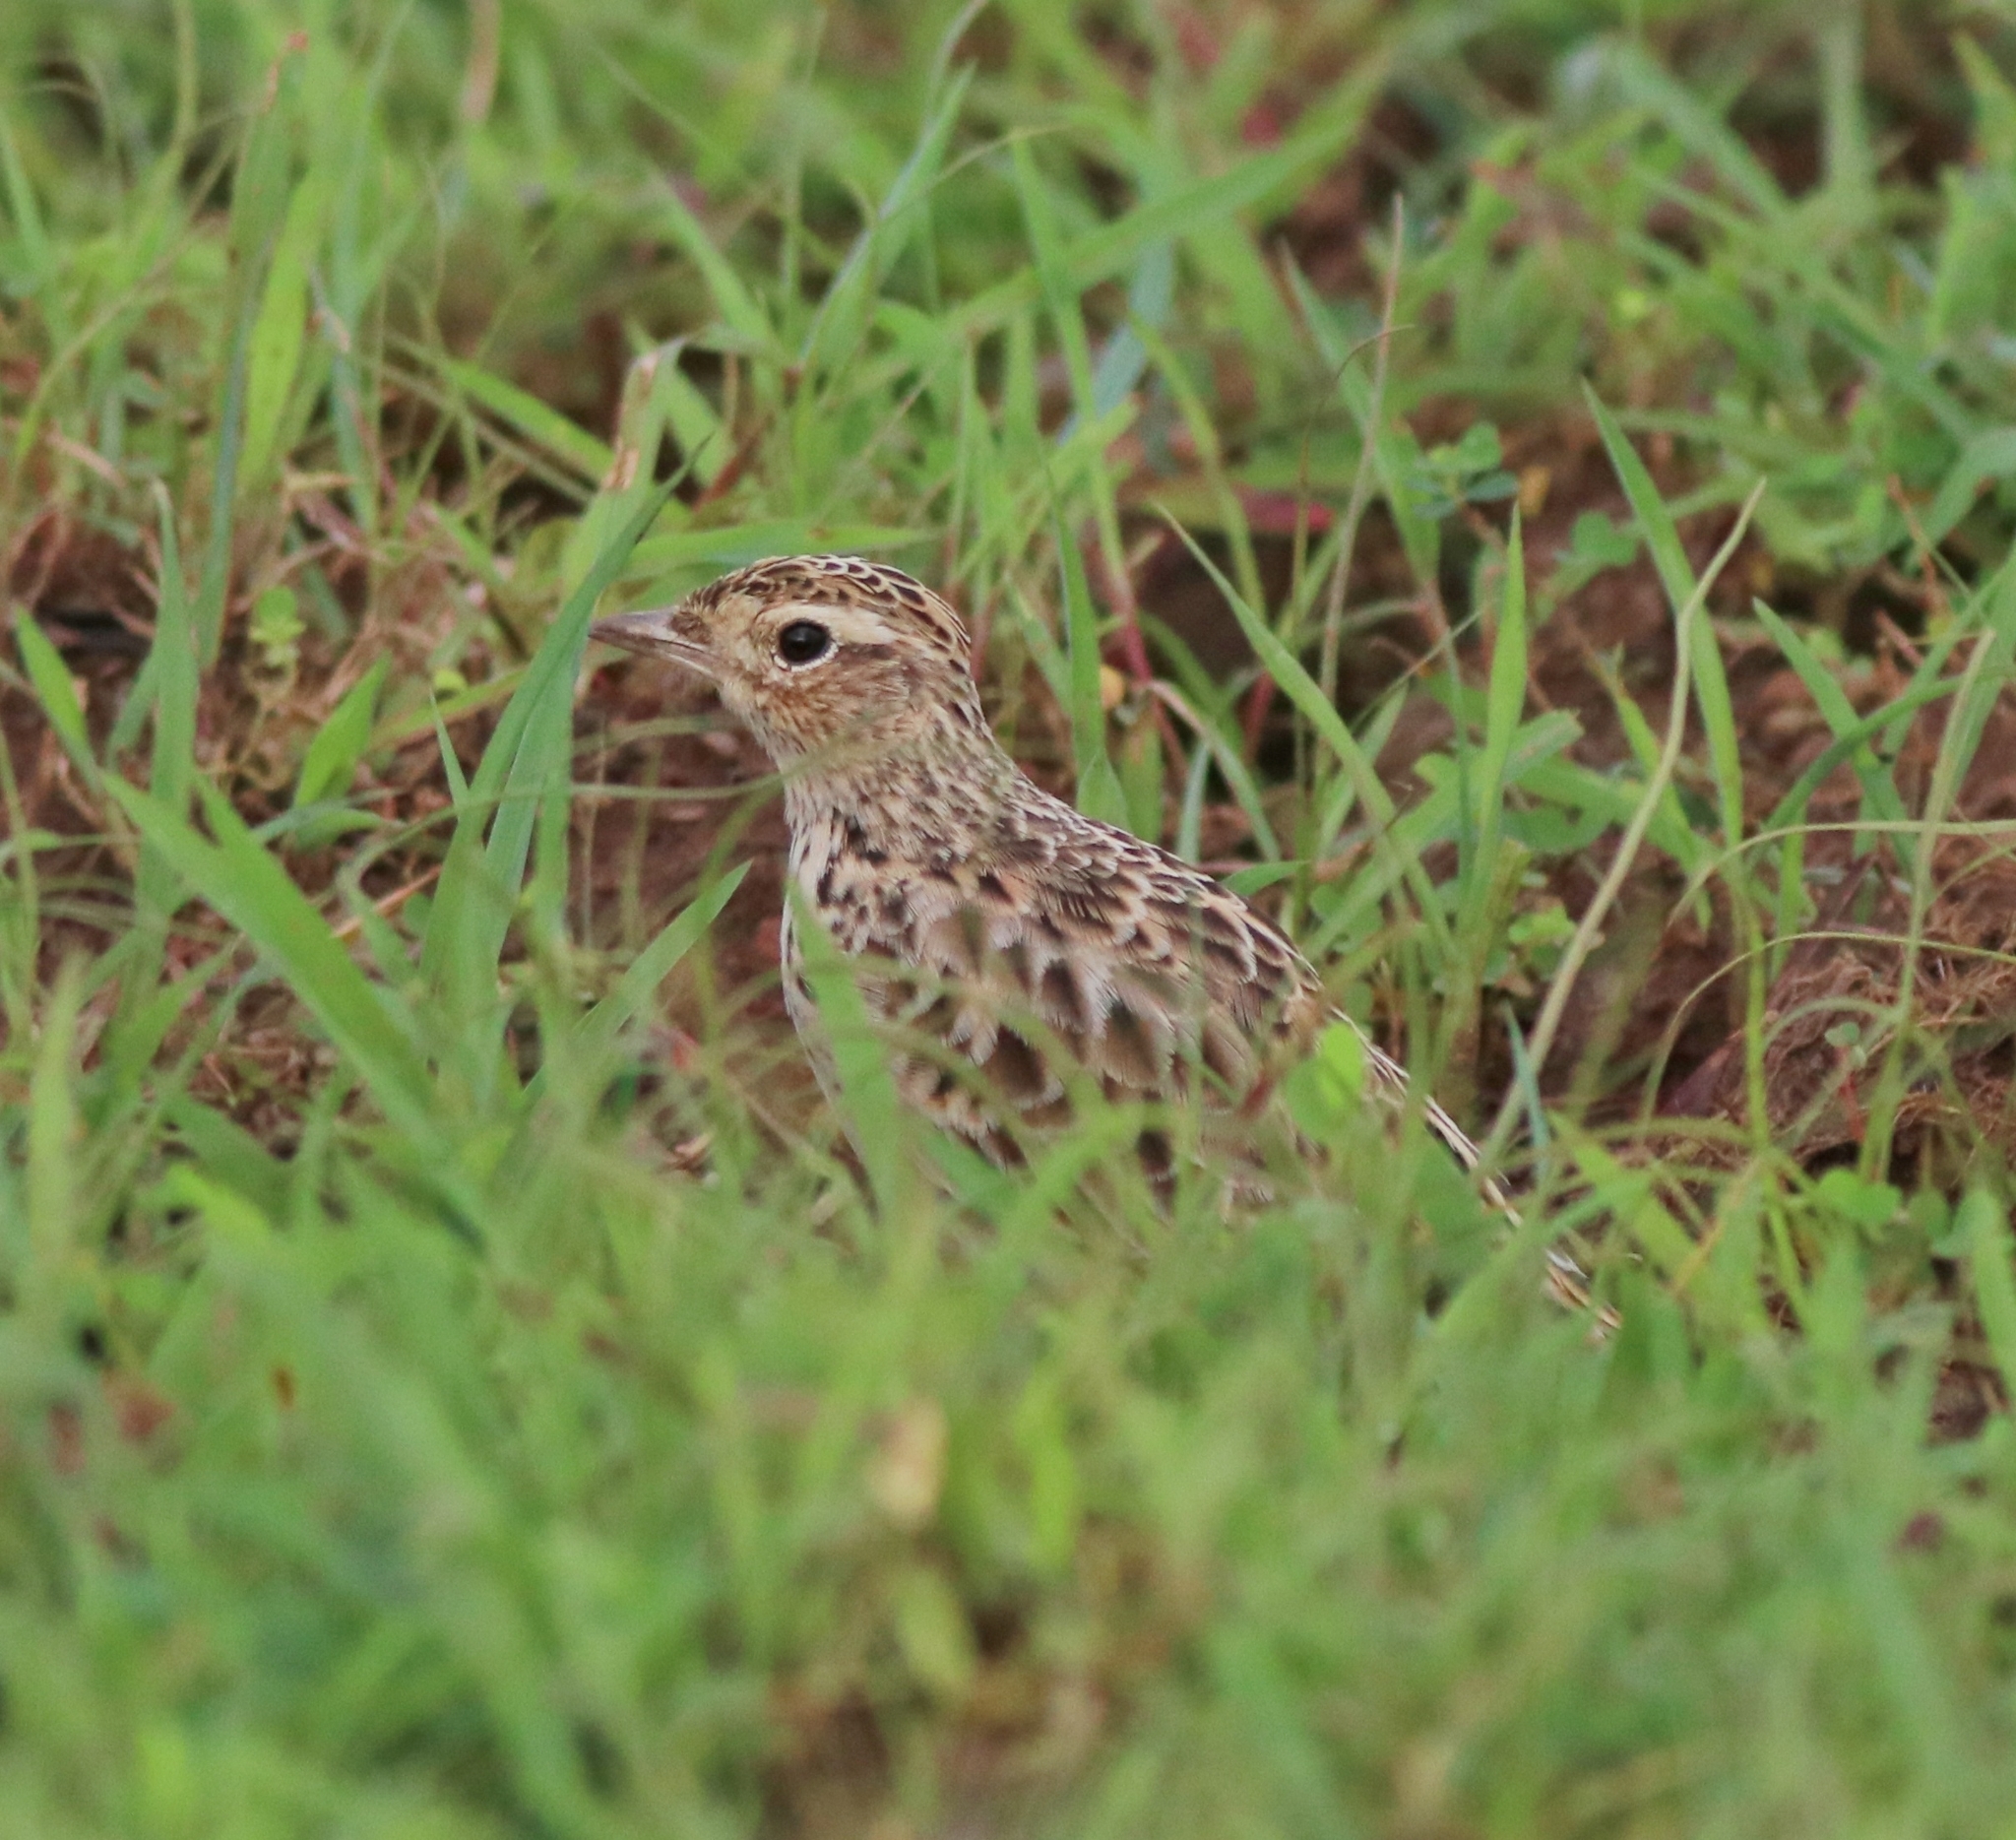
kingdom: Animalia
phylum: Chordata
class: Aves
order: Passeriformes
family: Alaudidae
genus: Alauda
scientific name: Alauda gulgula
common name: Oriental skylark
